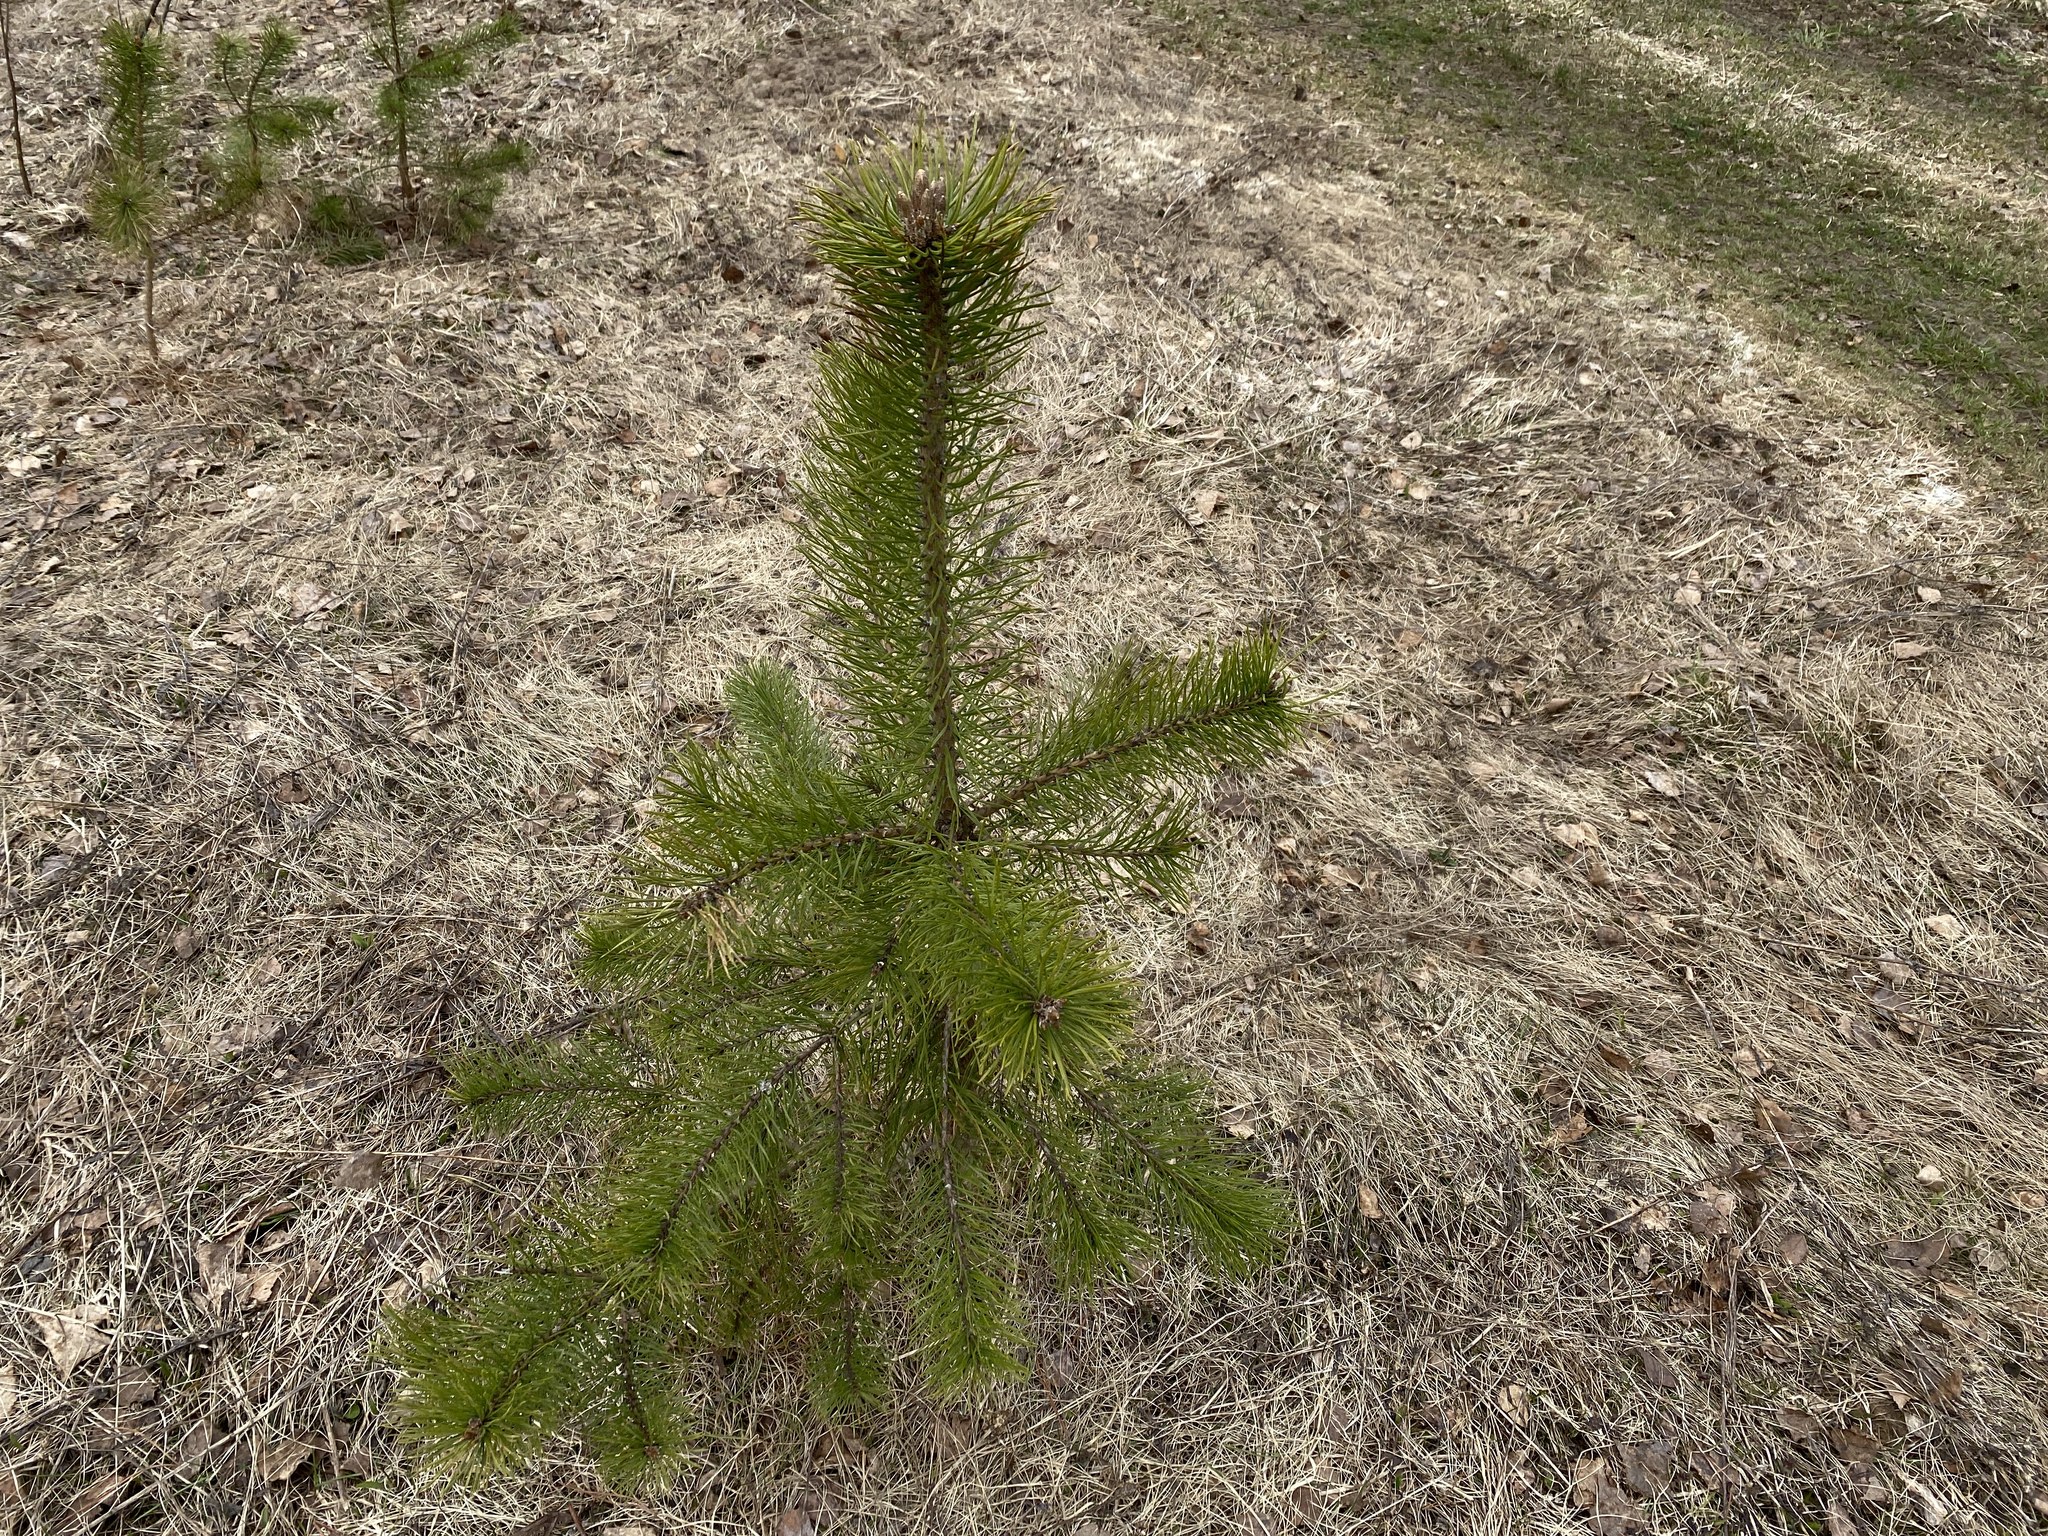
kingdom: Plantae
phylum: Tracheophyta
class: Pinopsida
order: Pinales
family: Pinaceae
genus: Pinus
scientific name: Pinus sylvestris
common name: Scots pine
